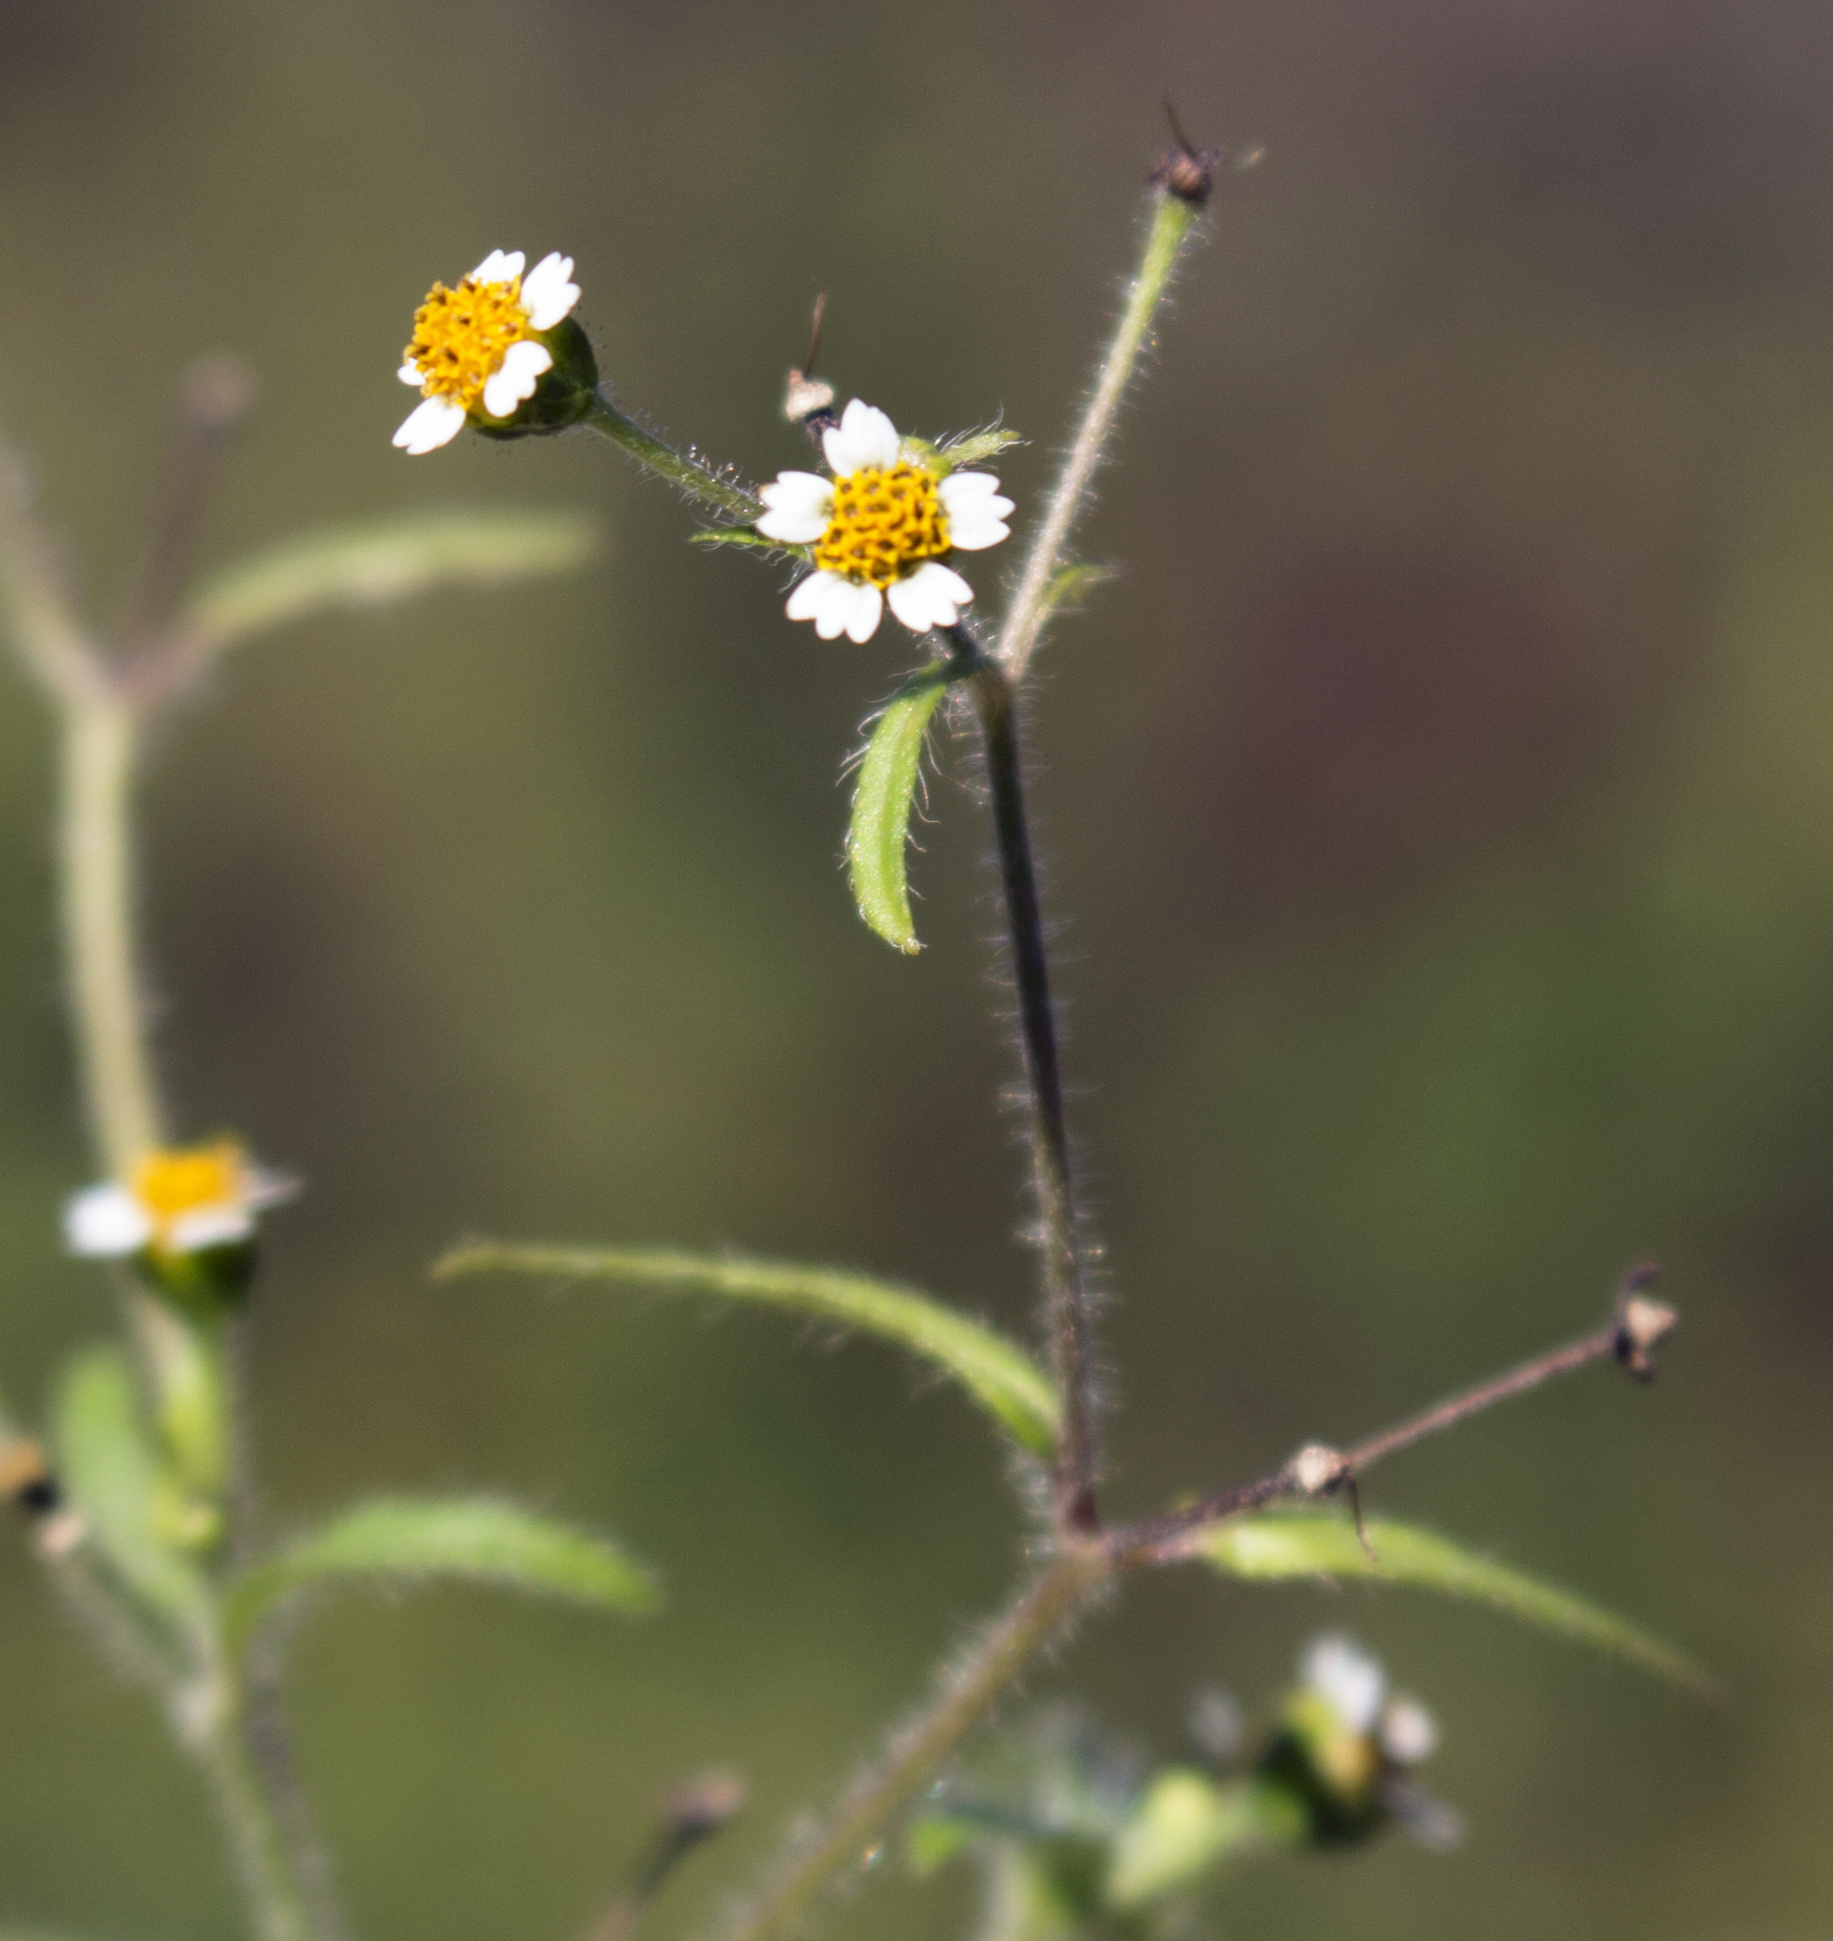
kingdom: Plantae
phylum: Tracheophyta
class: Magnoliopsida
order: Asterales
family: Asteraceae
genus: Galinsoga
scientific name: Galinsoga quadriradiata
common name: Shaggy soldier
